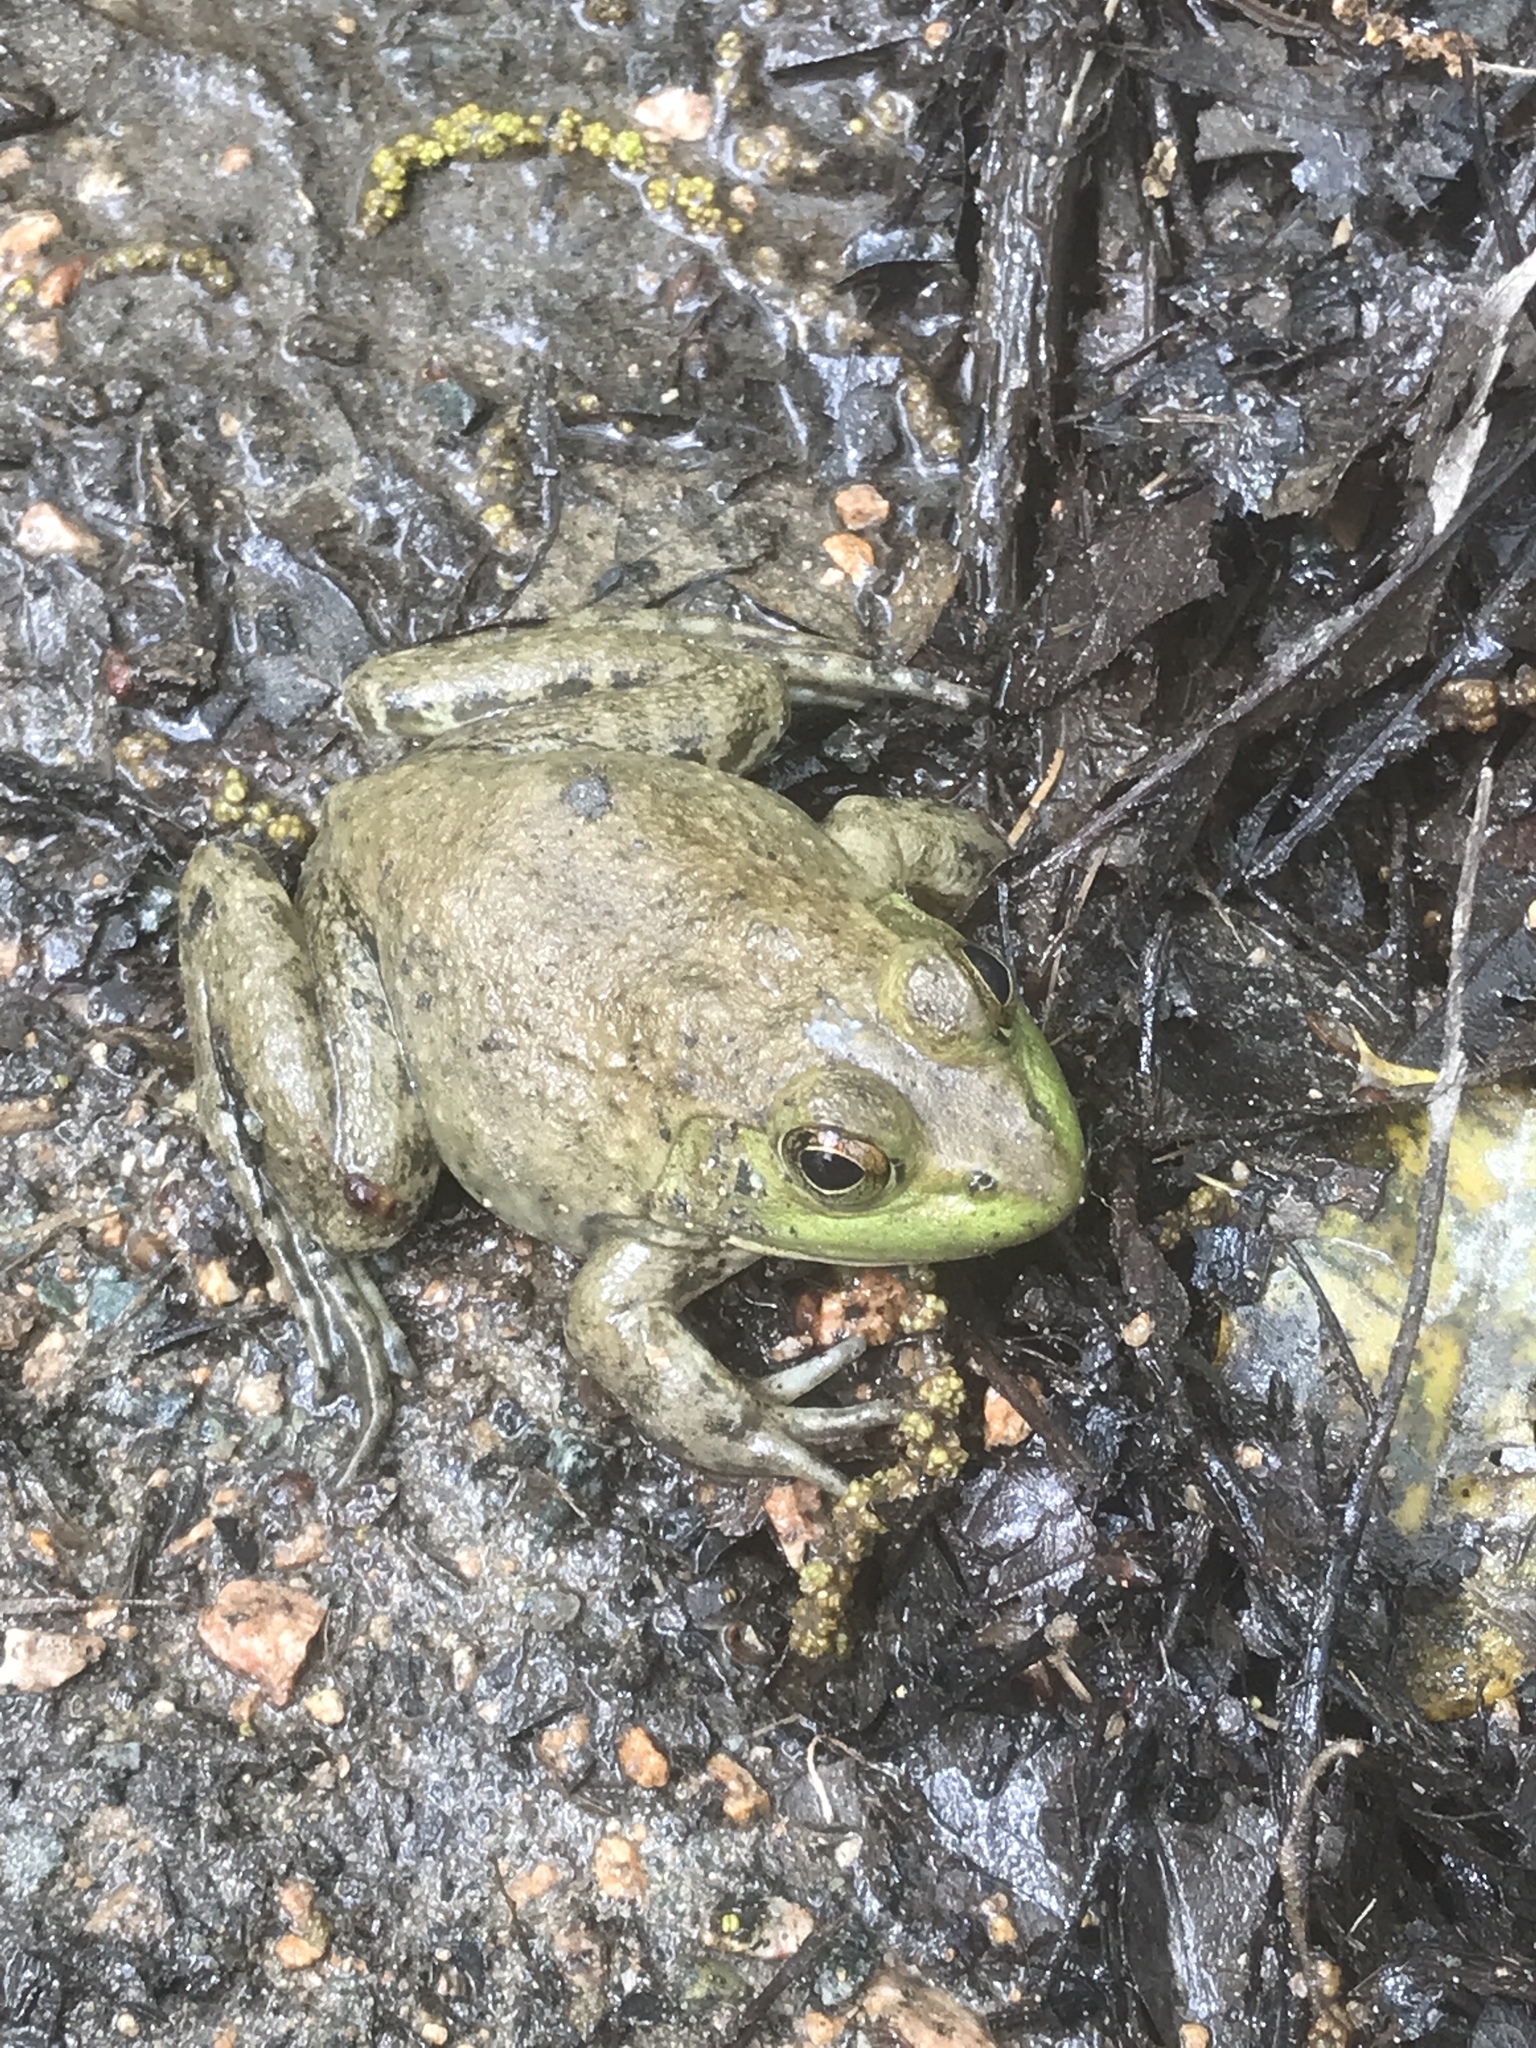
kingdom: Animalia
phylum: Chordata
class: Amphibia
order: Anura
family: Ranidae
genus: Lithobates
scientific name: Lithobates catesbeianus
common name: American bullfrog
